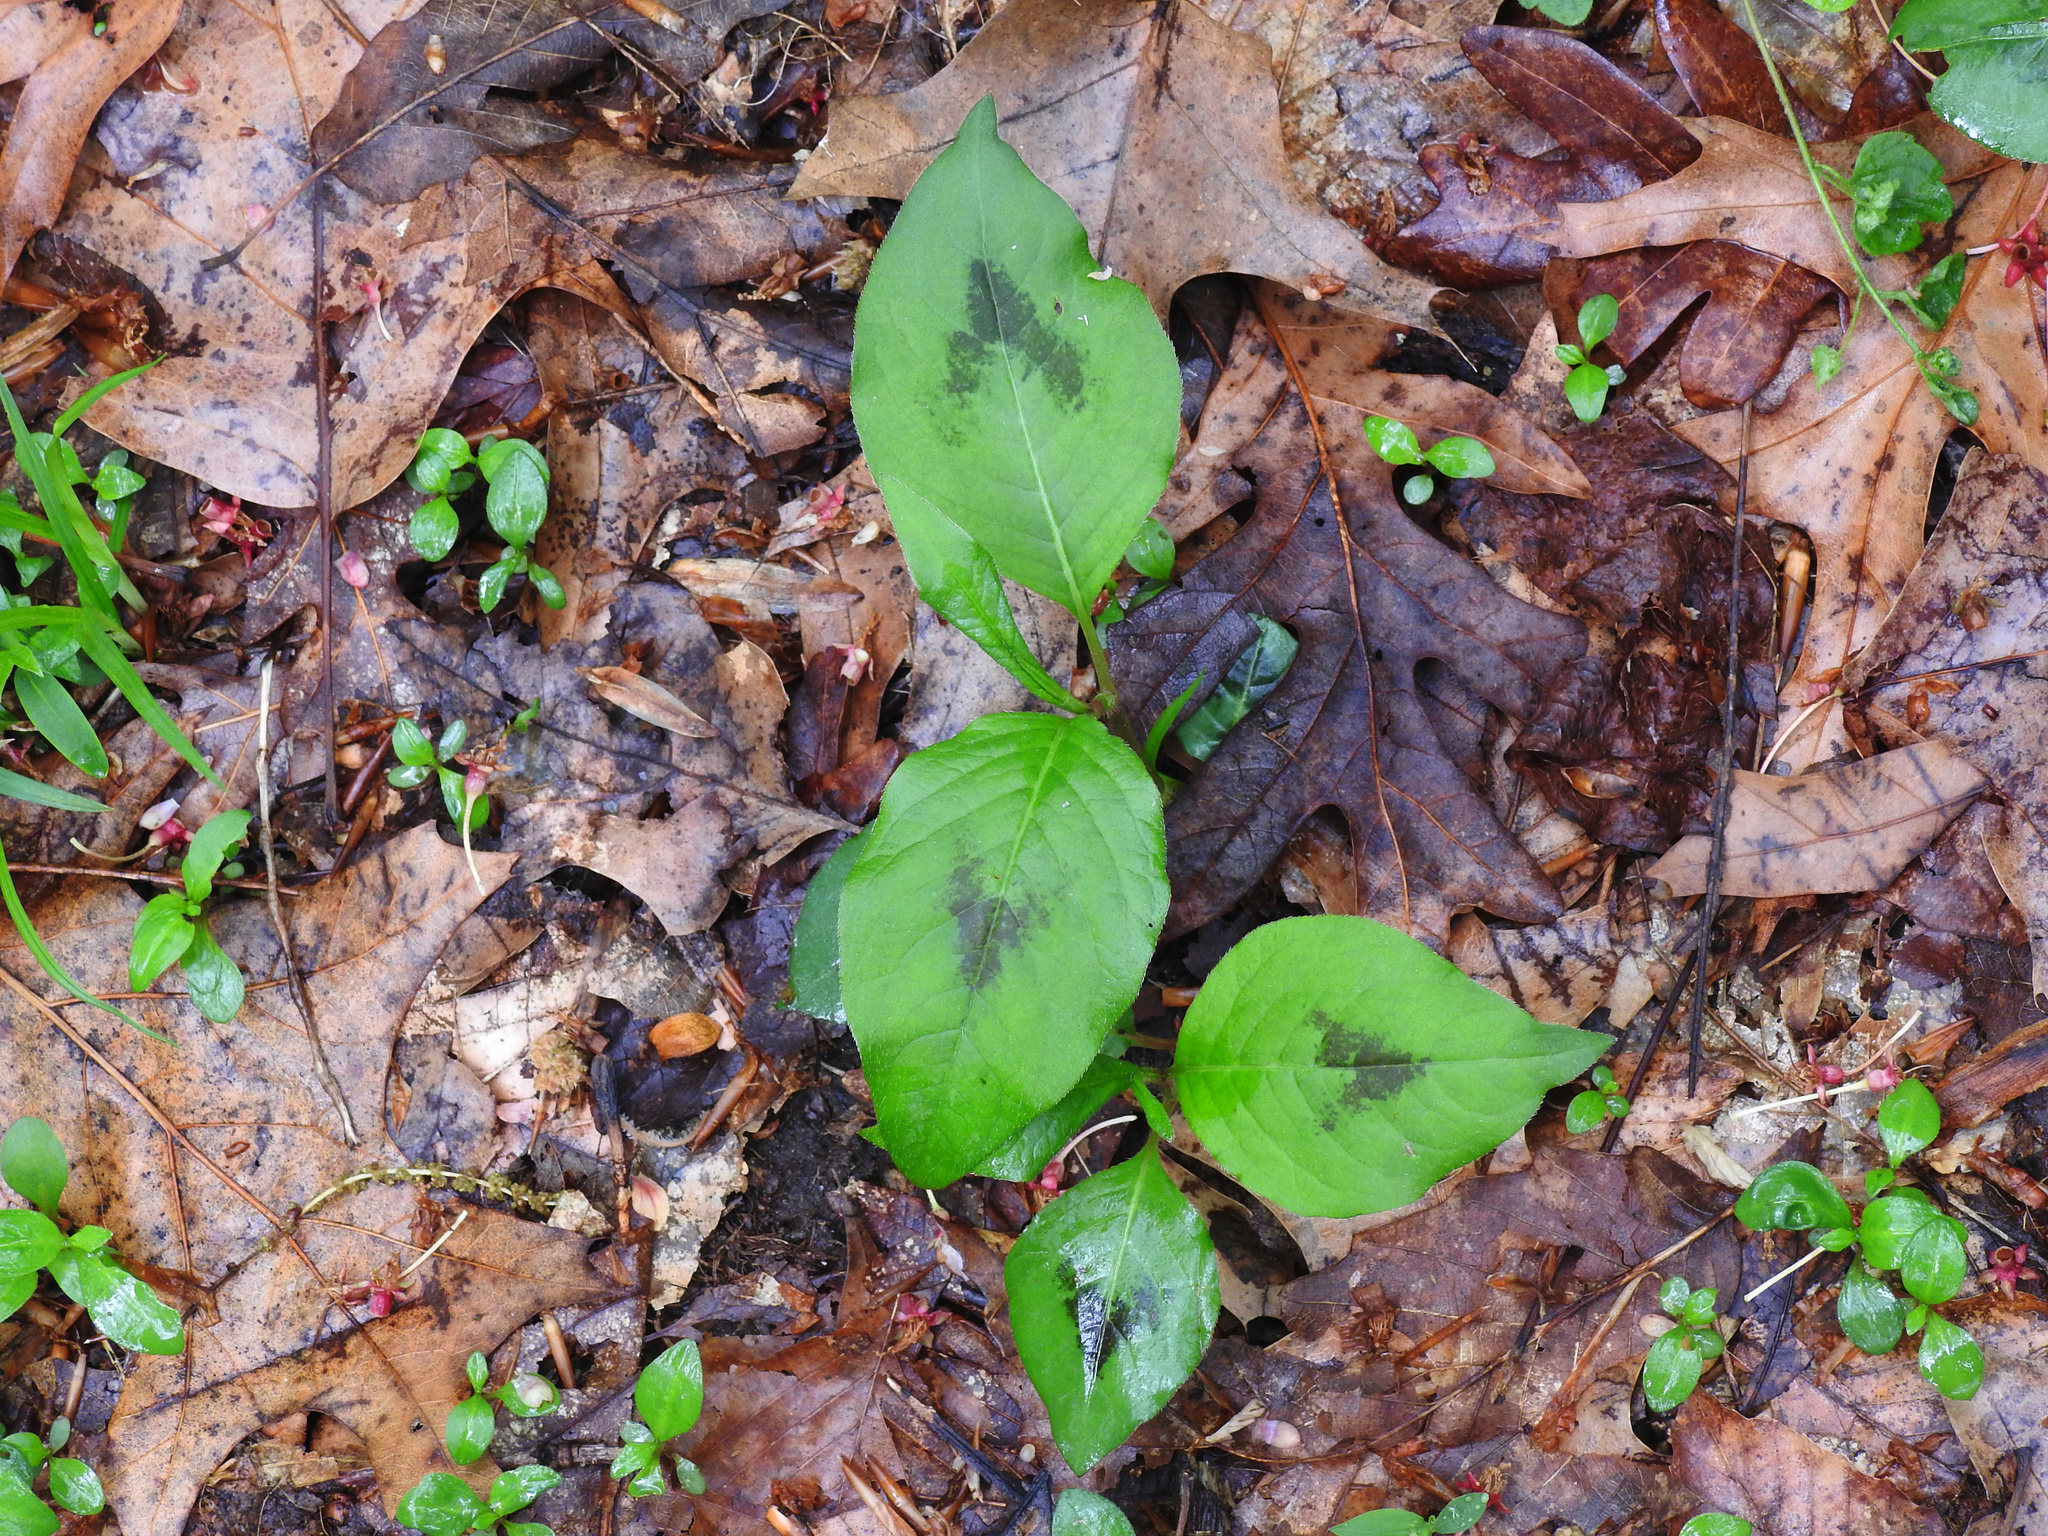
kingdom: Plantae
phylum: Tracheophyta
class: Magnoliopsida
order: Caryophyllales
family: Polygonaceae
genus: Persicaria
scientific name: Persicaria virginiana
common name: Jumpseed
